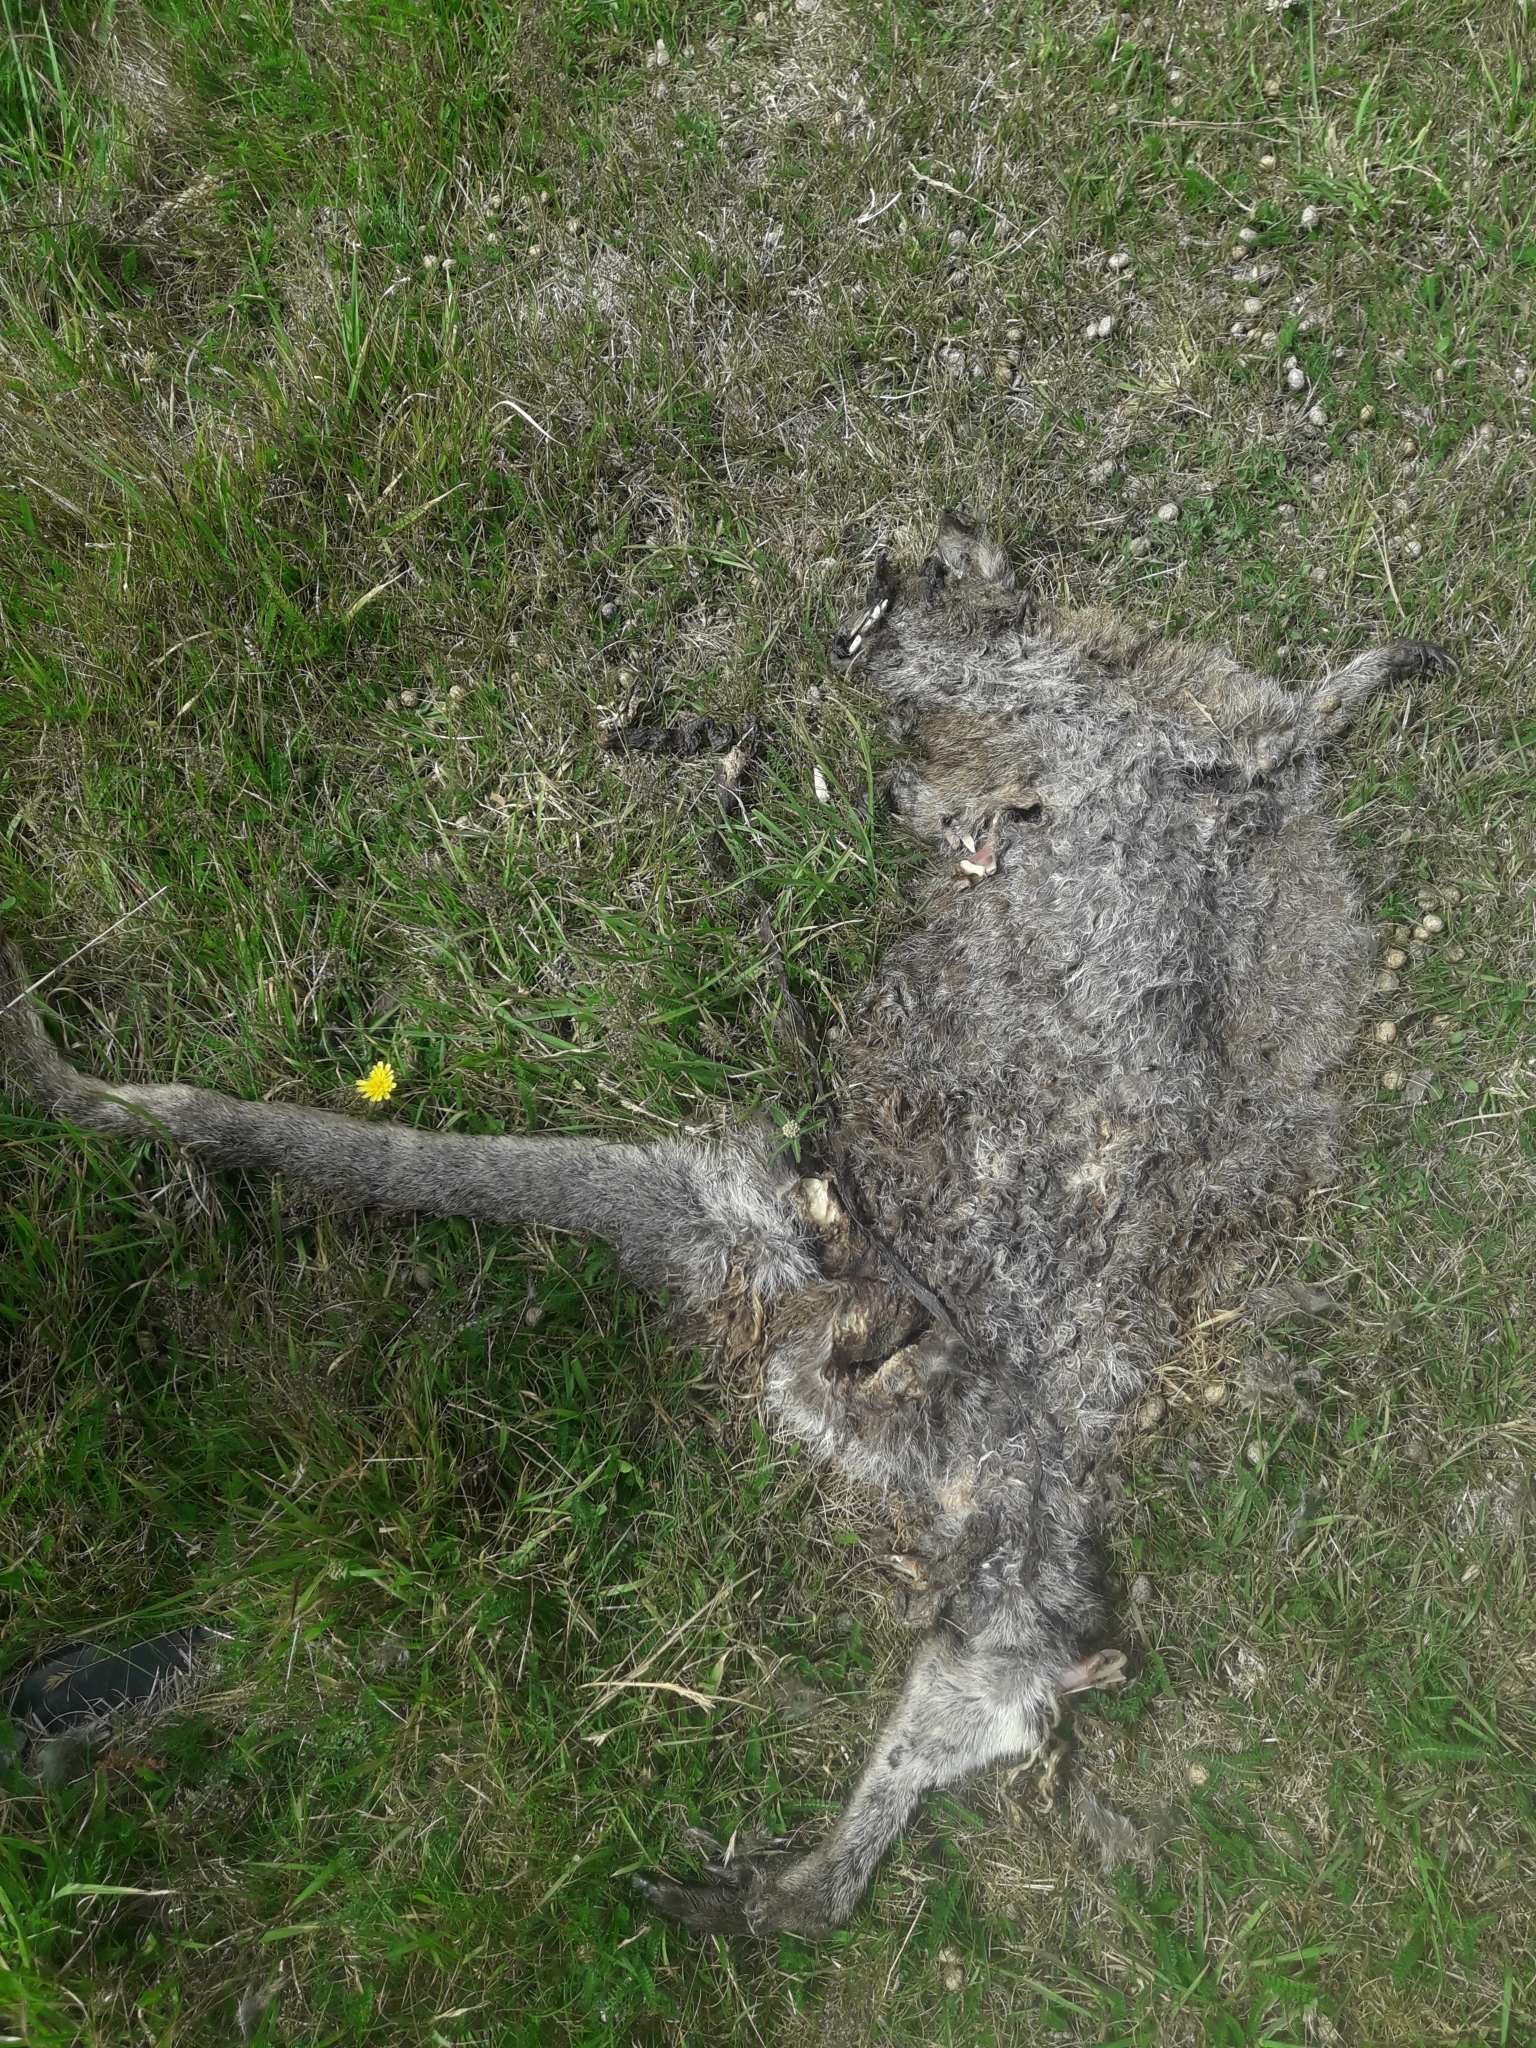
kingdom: Animalia
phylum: Chordata
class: Mammalia
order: Diprotodontia
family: Macropodidae
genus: Notamacropus
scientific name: Notamacropus rufogriseus
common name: Red-necked wallaby
